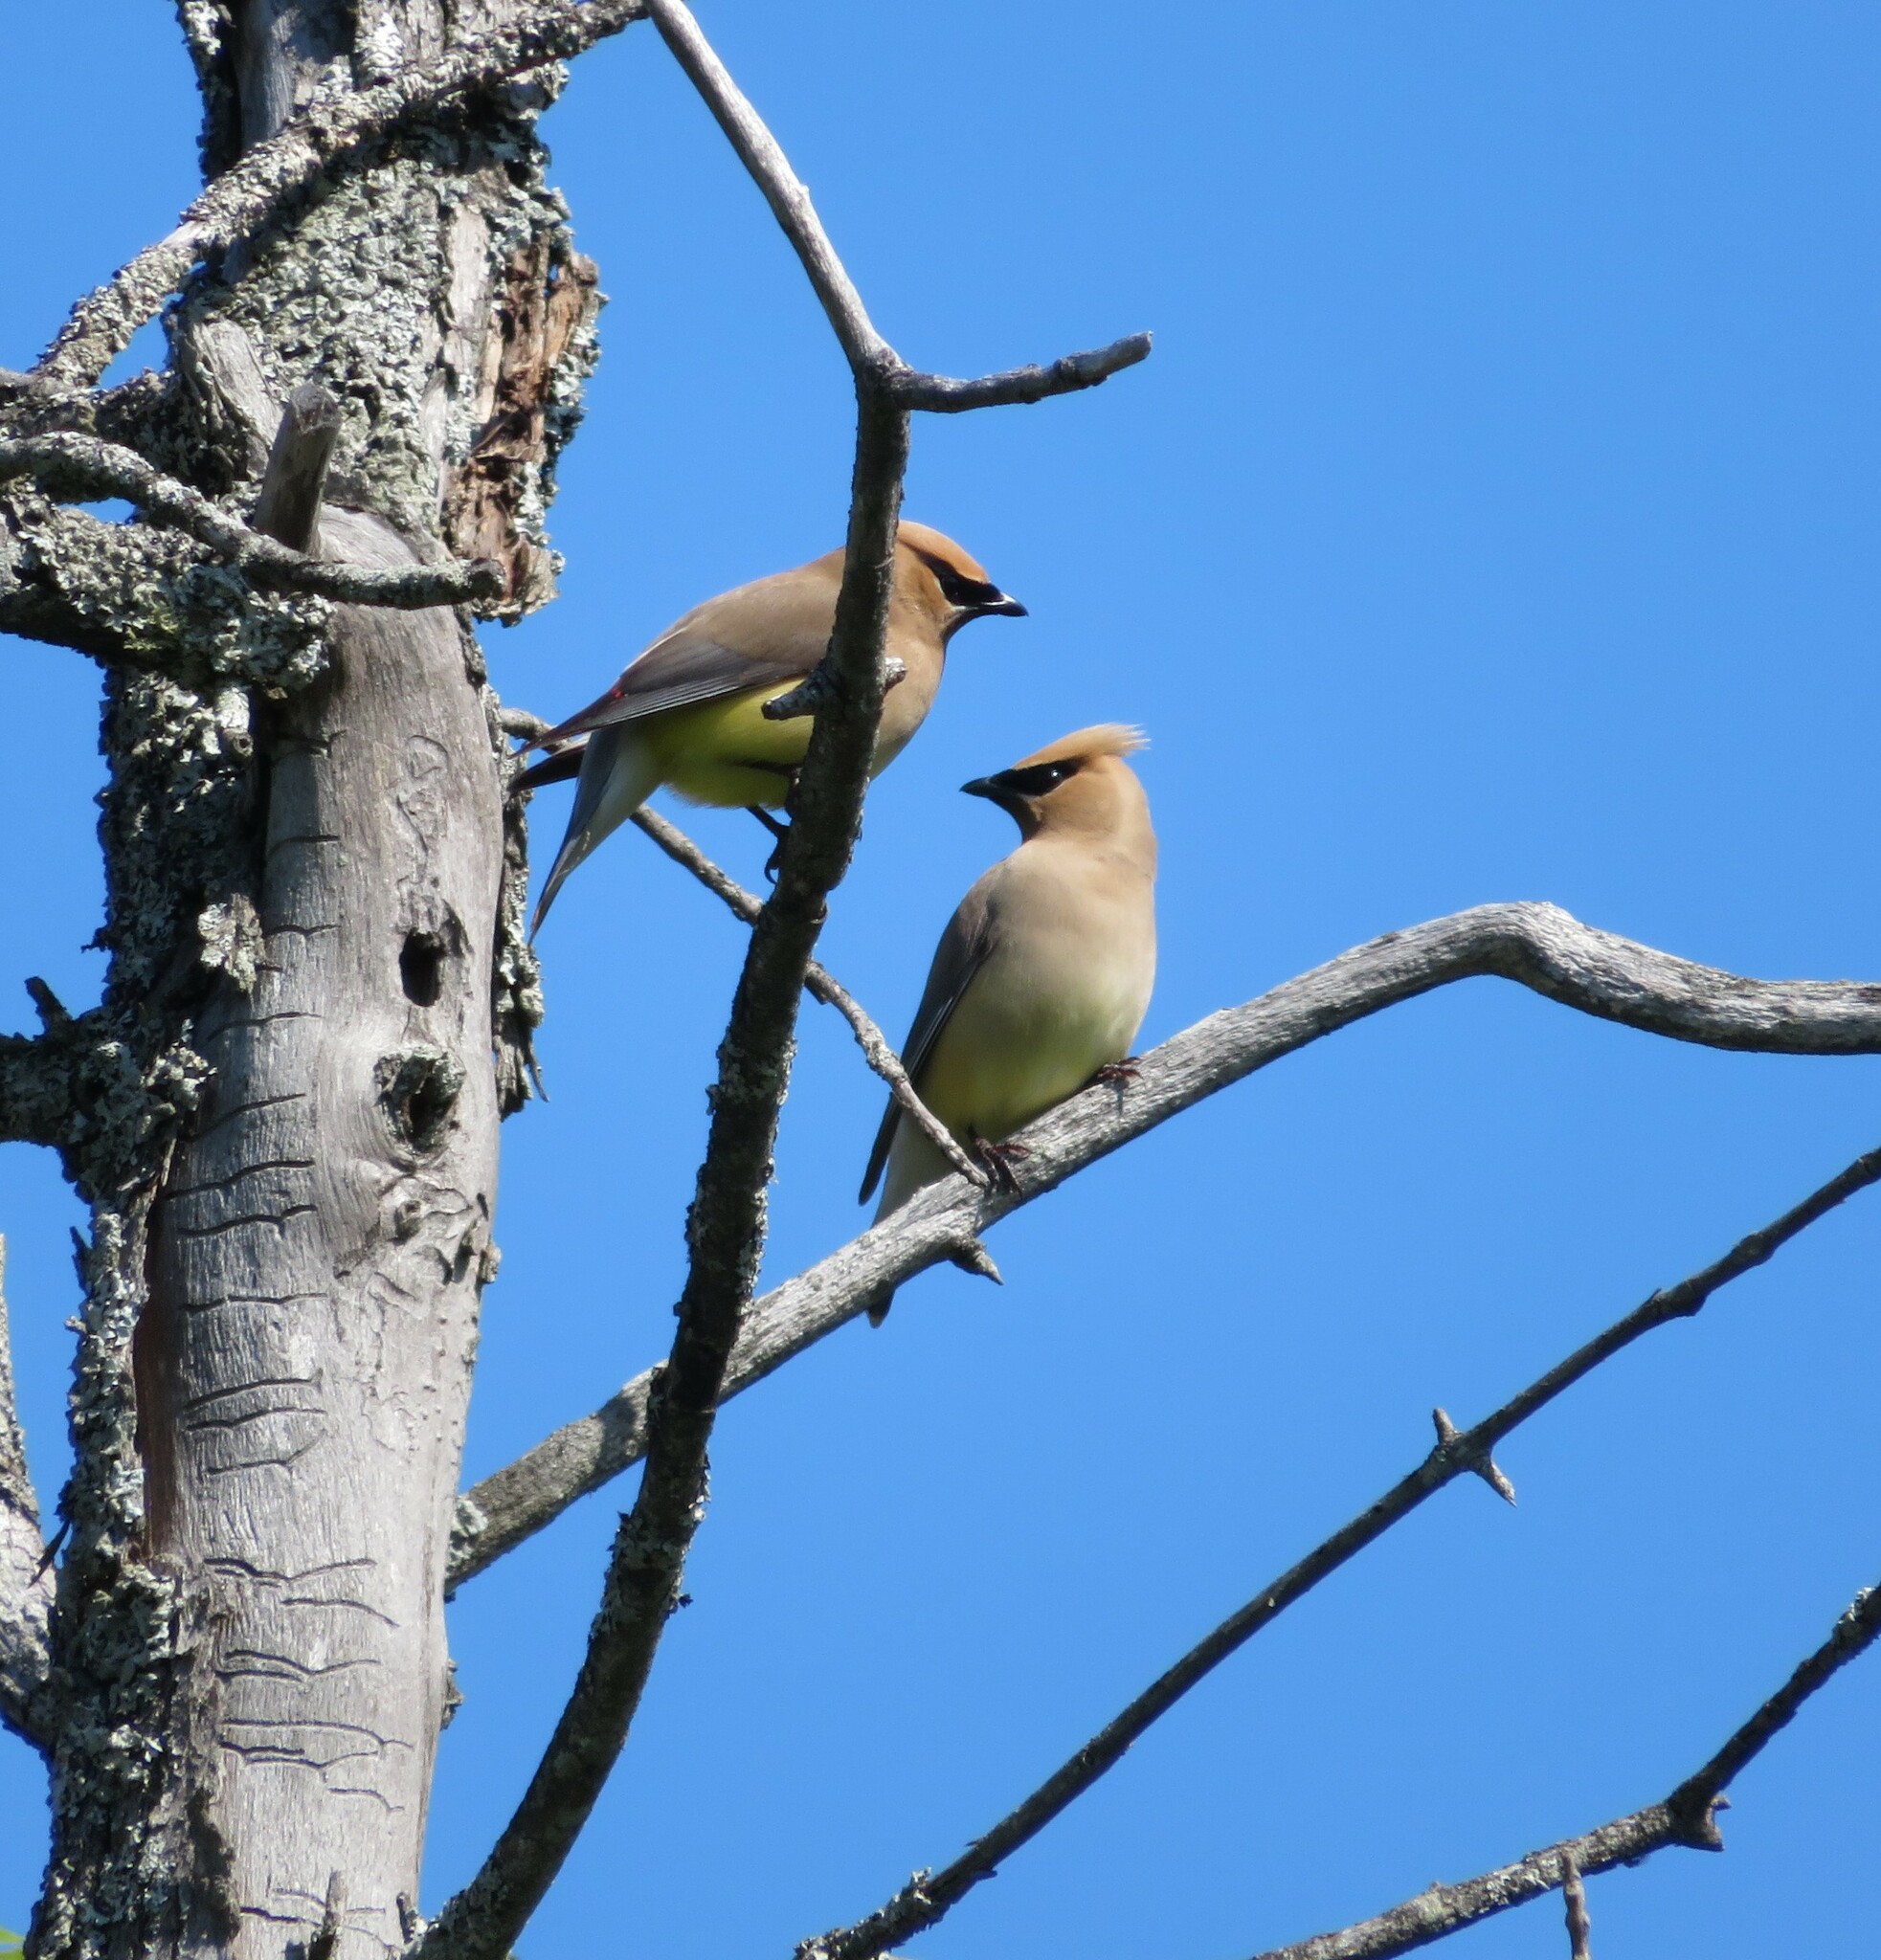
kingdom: Animalia
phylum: Chordata
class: Aves
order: Passeriformes
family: Bombycillidae
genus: Bombycilla
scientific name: Bombycilla cedrorum
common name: Cedar waxwing
